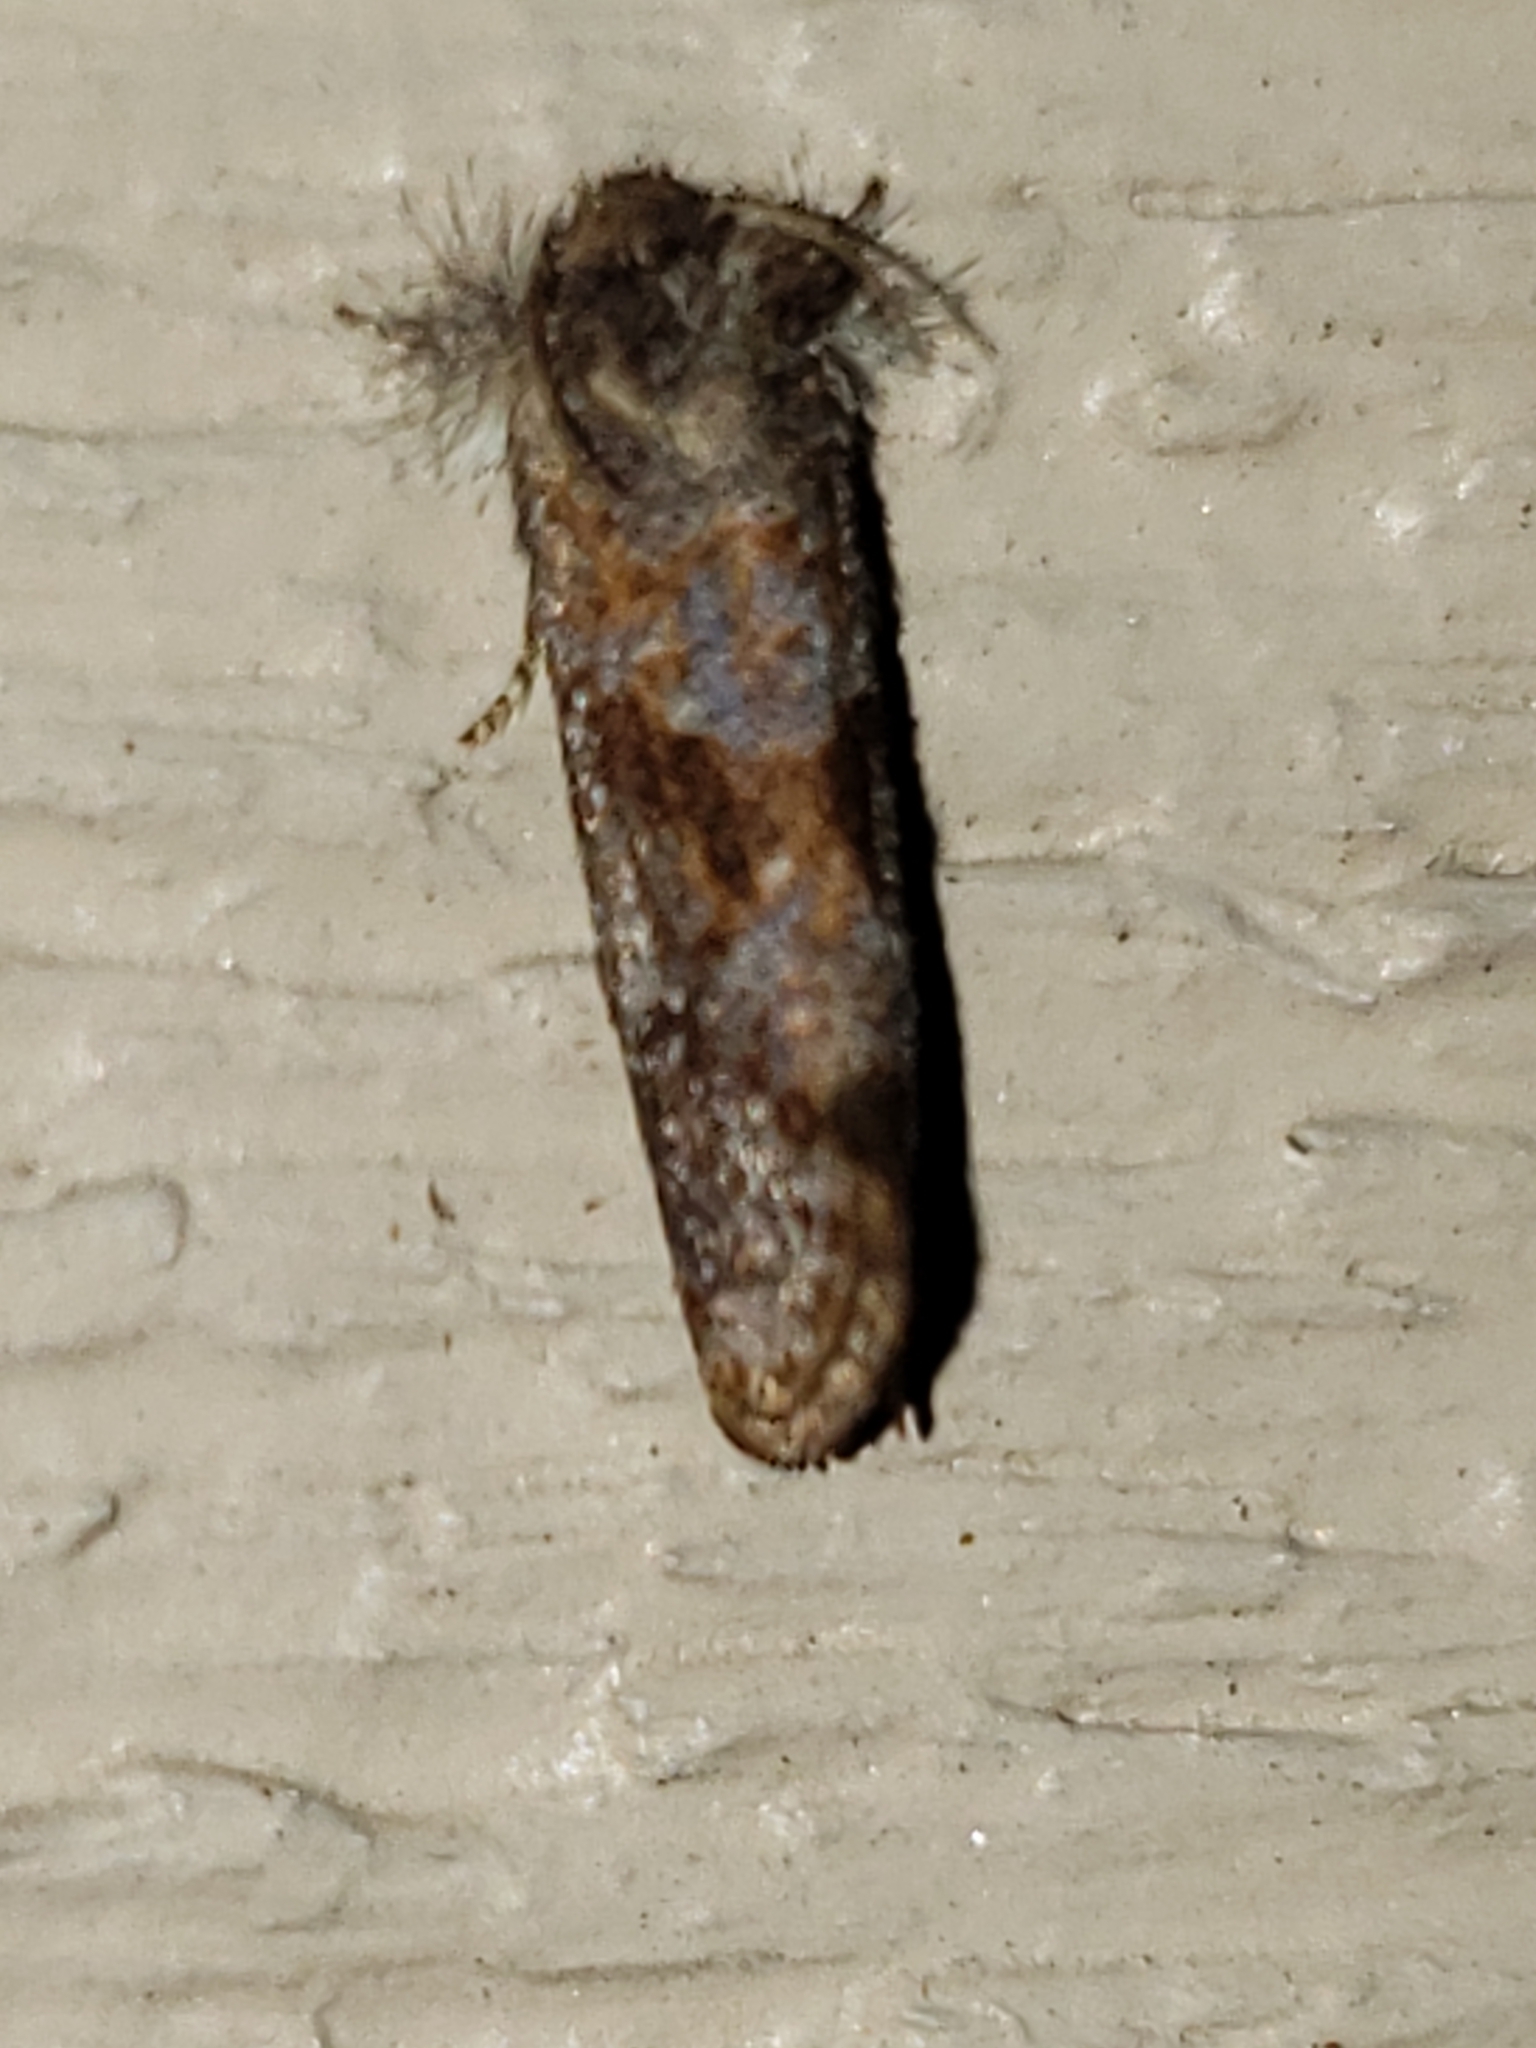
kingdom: Animalia
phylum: Arthropoda
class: Insecta
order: Lepidoptera
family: Tineidae
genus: Acrolophus
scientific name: Acrolophus panamae
